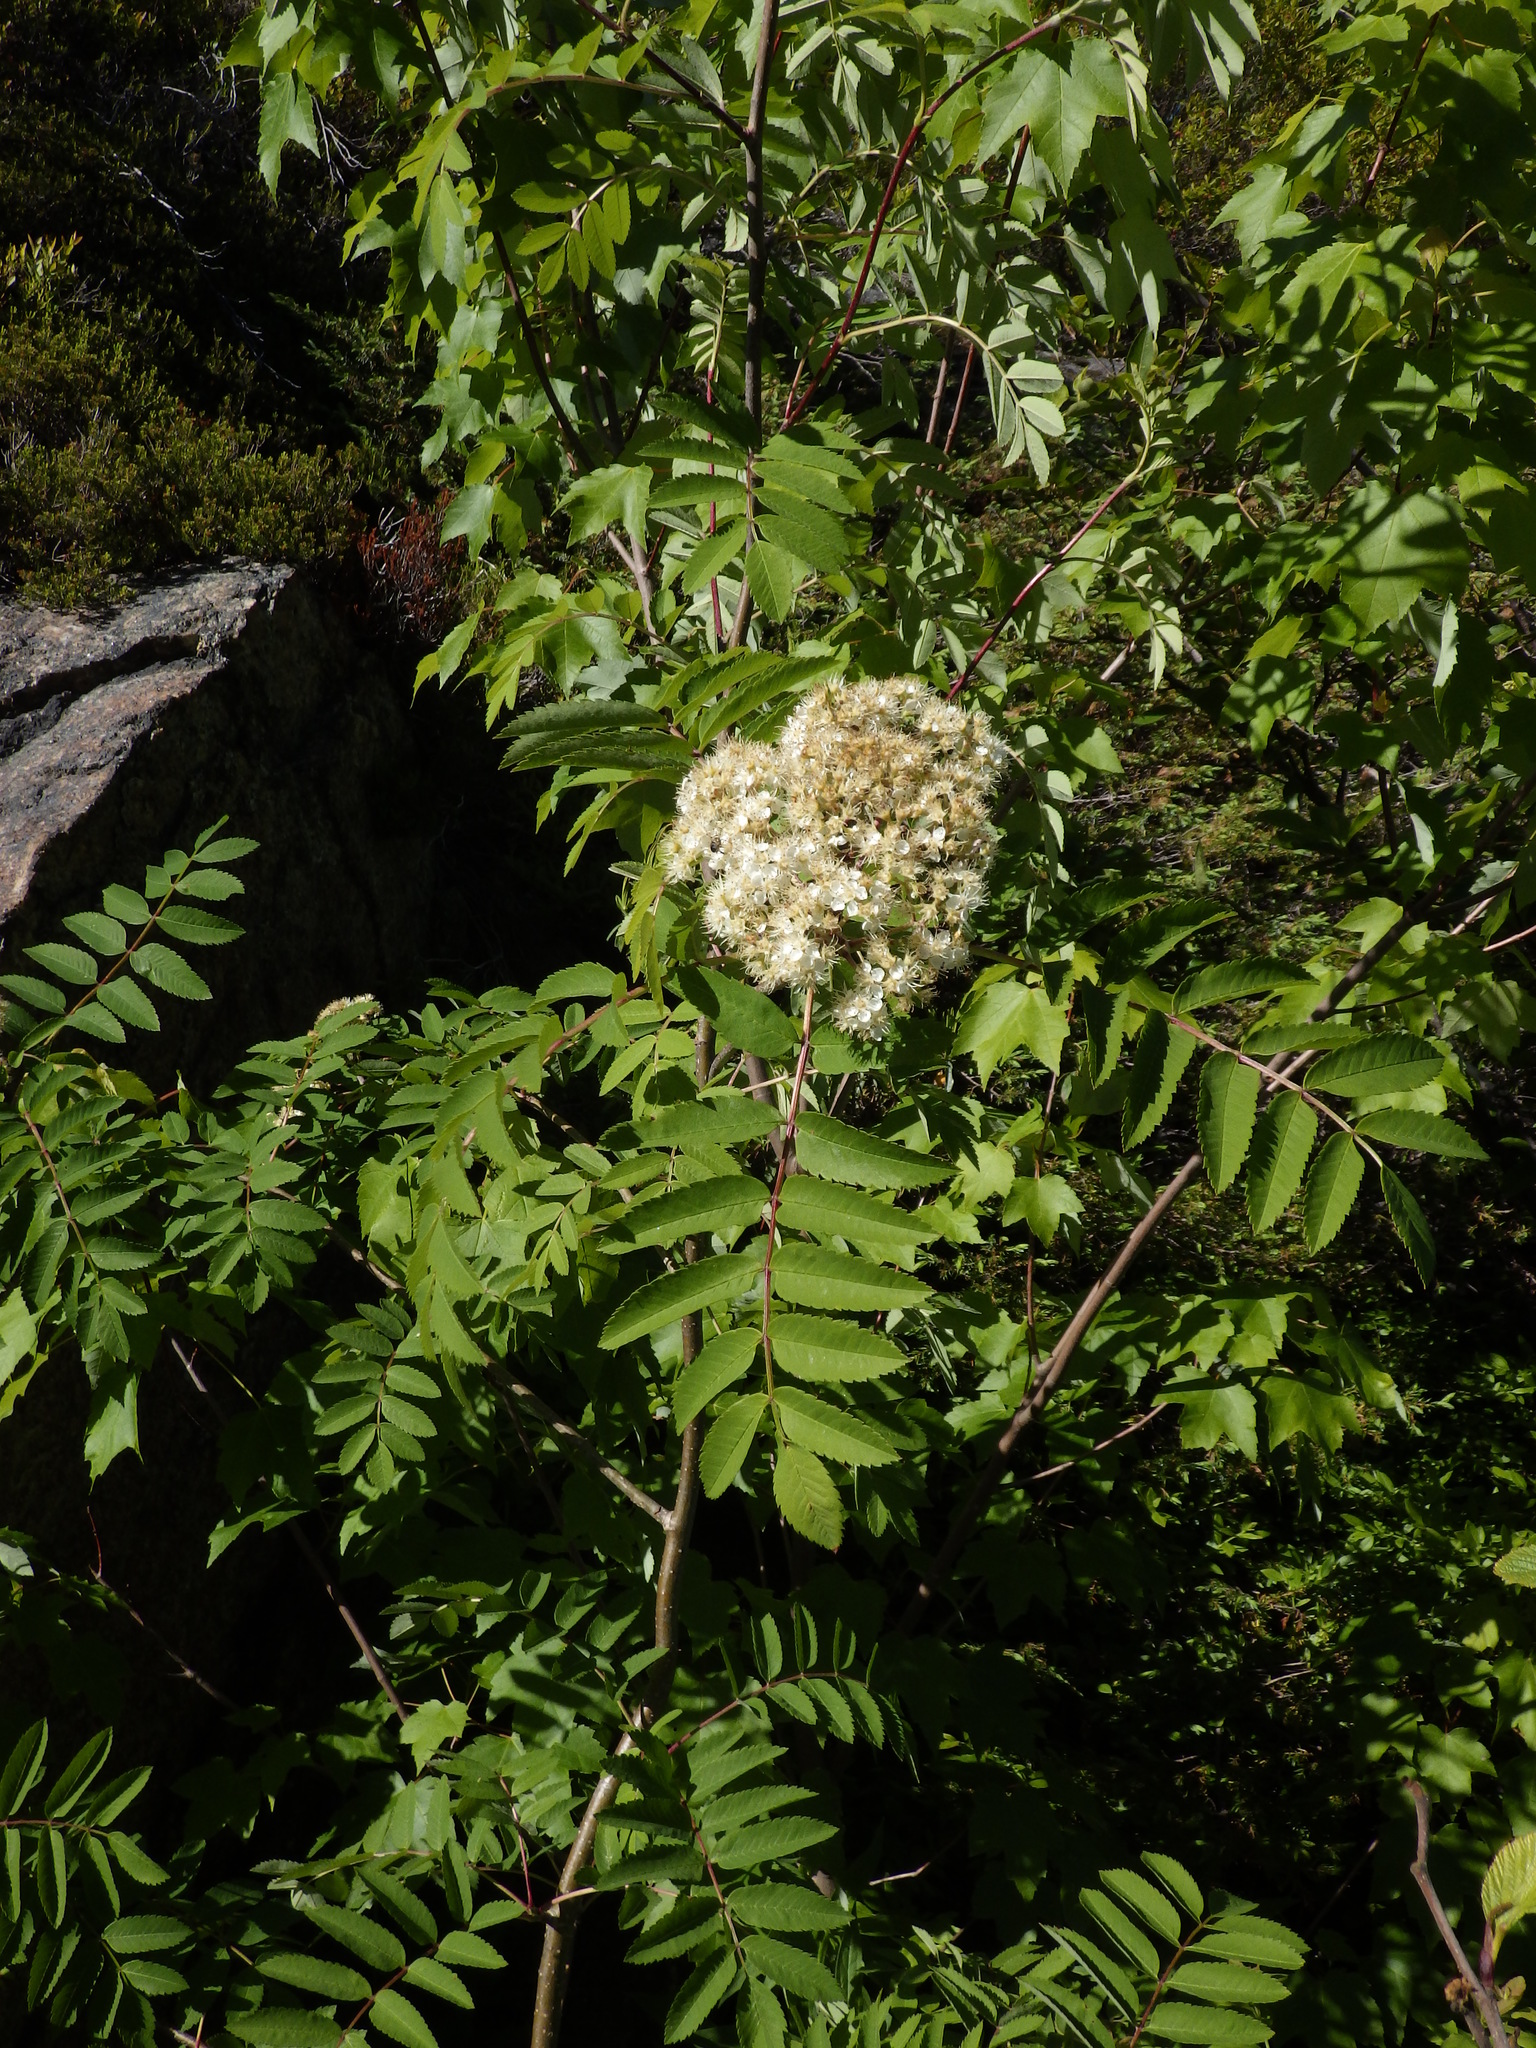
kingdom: Plantae
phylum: Tracheophyta
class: Magnoliopsida
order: Rosales
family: Rosaceae
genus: Sorbus
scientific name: Sorbus americana
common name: American mountain-ash
